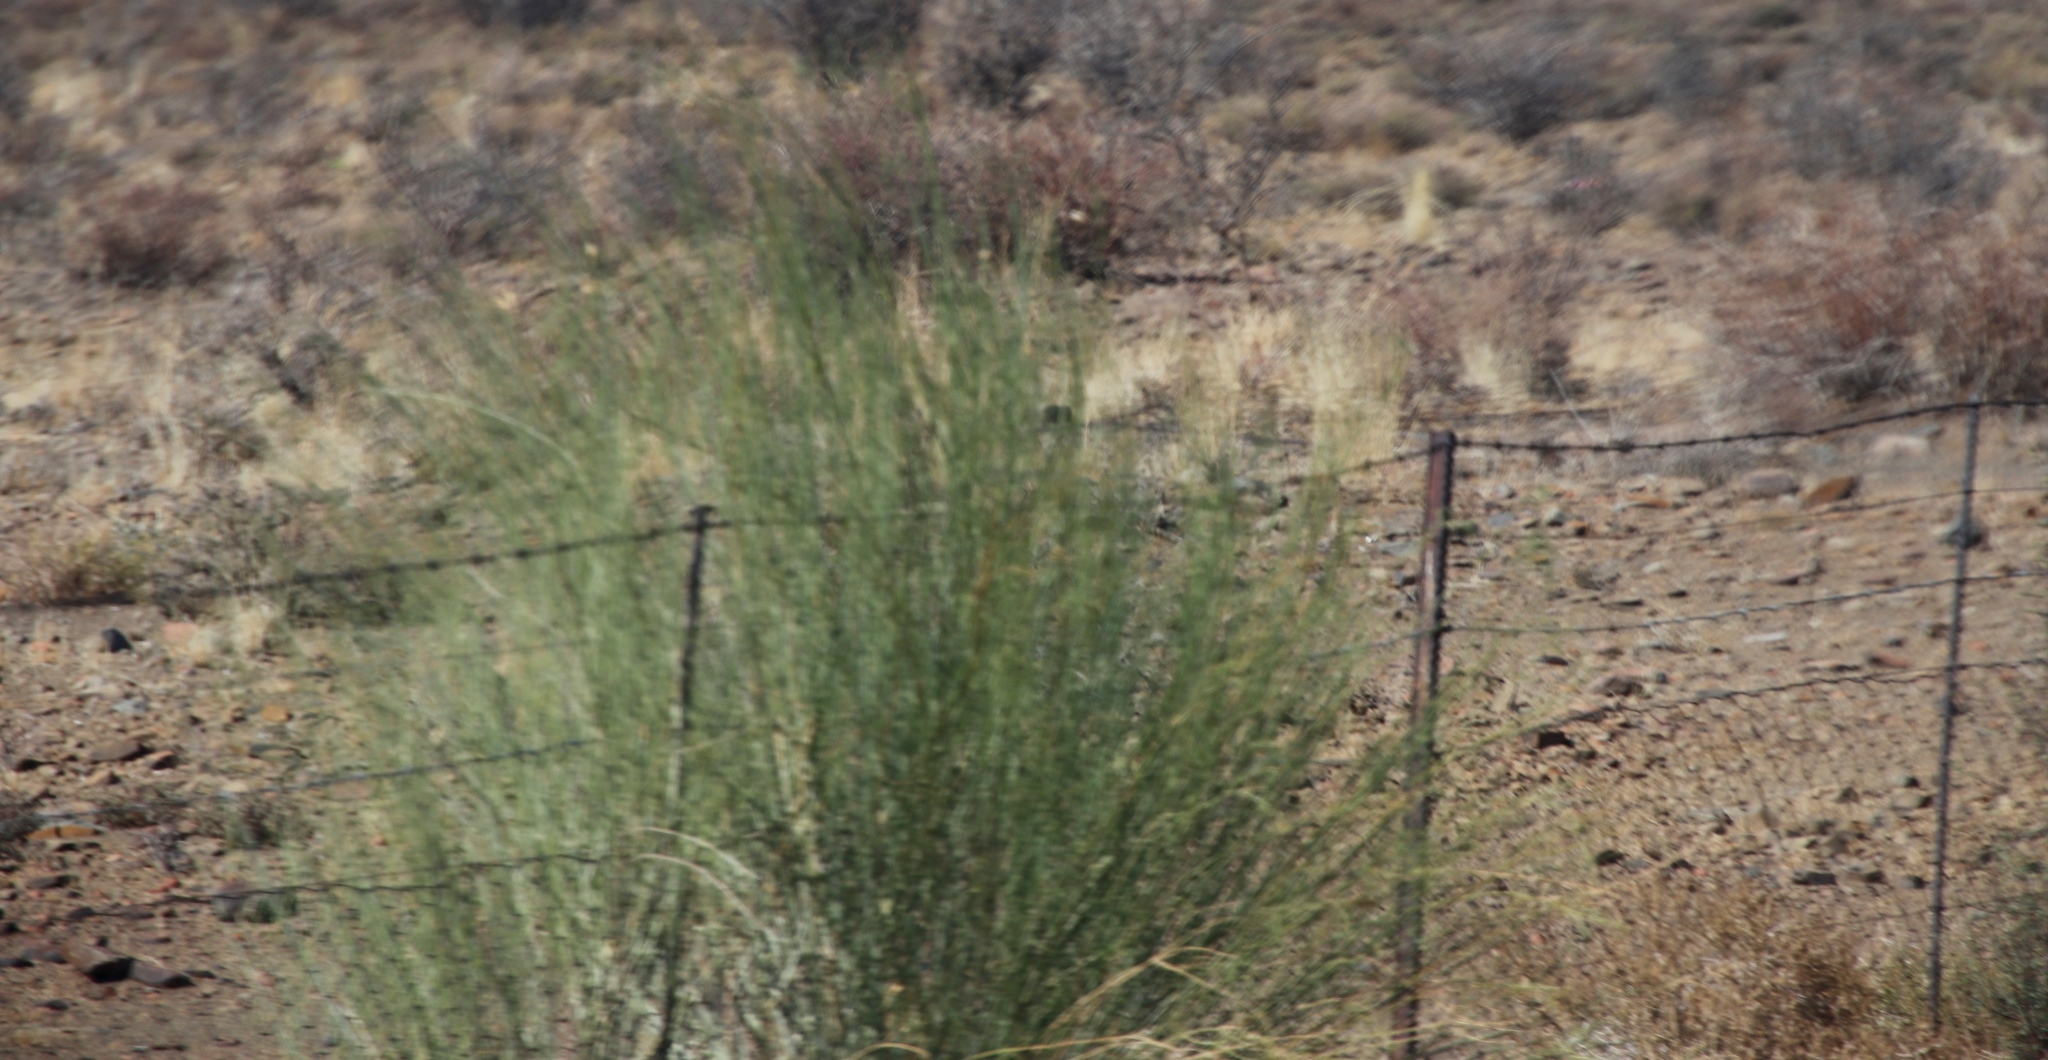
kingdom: Plantae
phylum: Tracheophyta
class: Magnoliopsida
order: Gentianales
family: Apocynaceae
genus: Gomphocarpus
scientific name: Gomphocarpus filiformis
